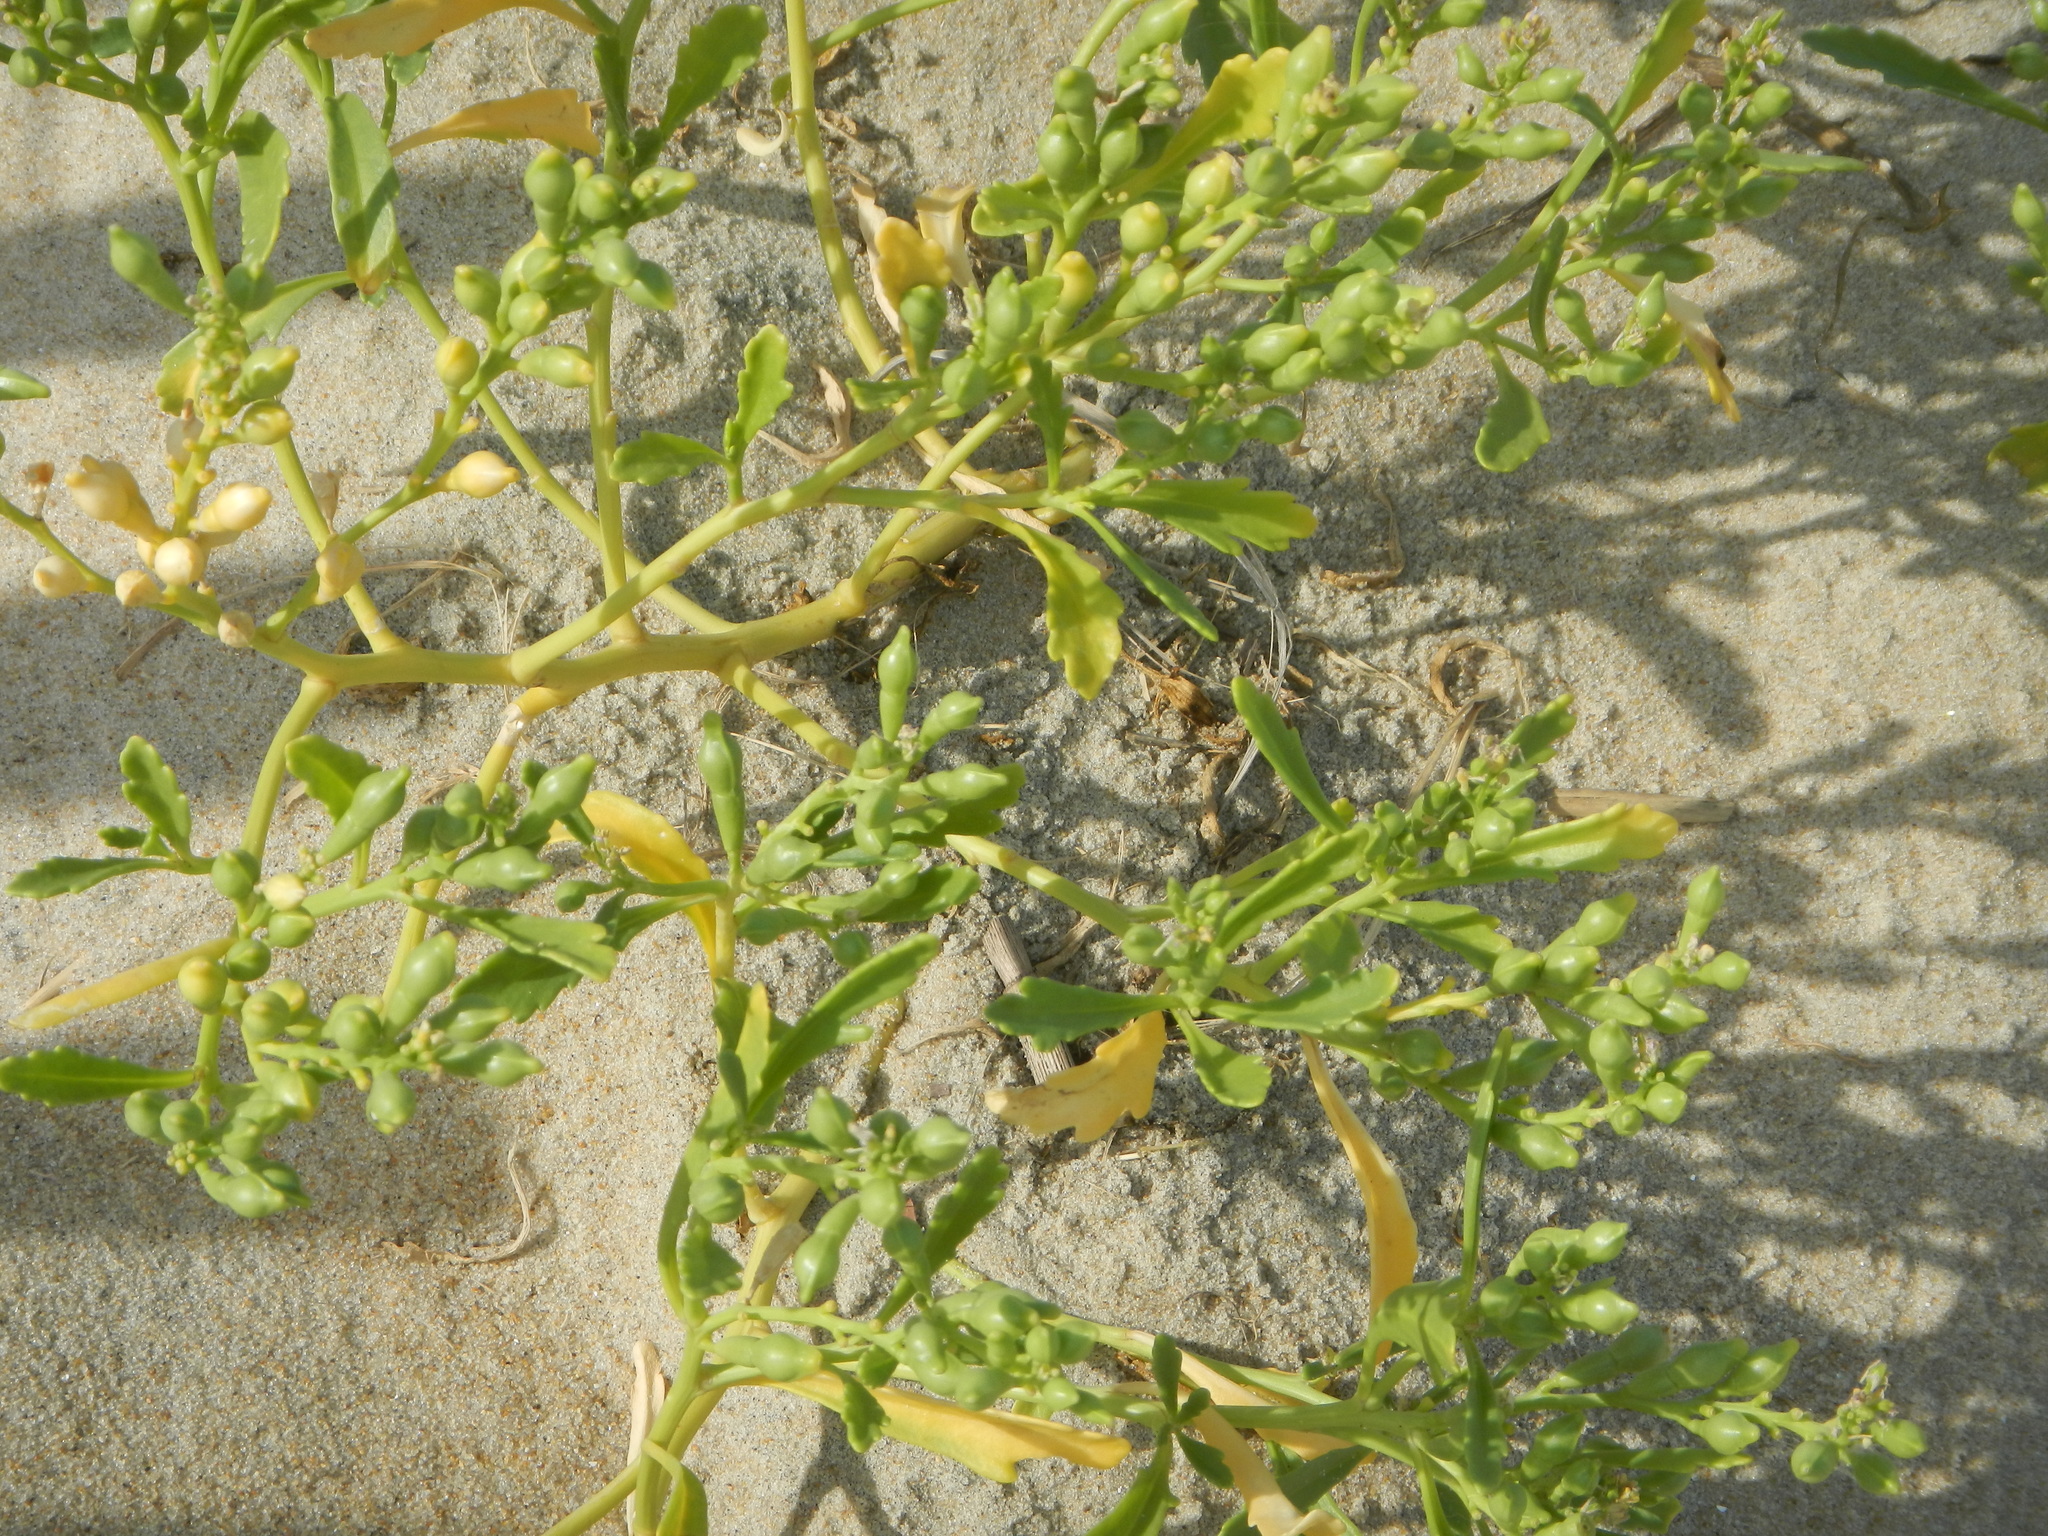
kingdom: Plantae
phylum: Tracheophyta
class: Magnoliopsida
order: Brassicales
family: Brassicaceae
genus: Cakile
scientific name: Cakile edentula
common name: American sea rocket
